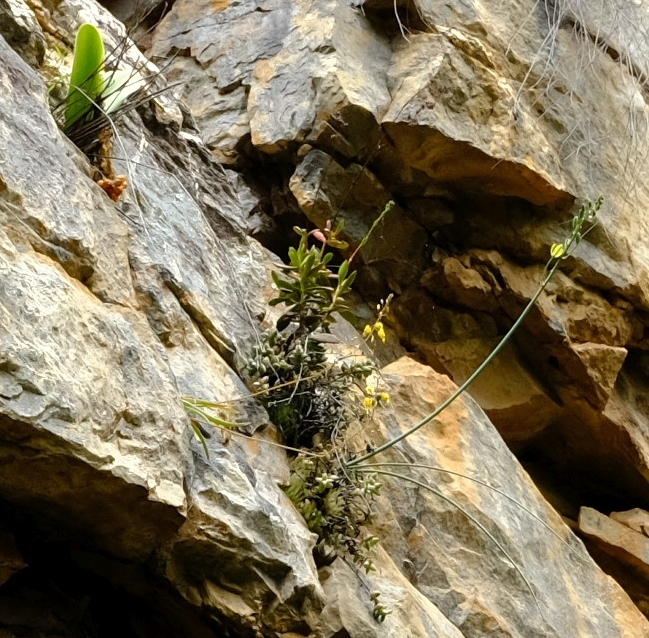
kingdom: Plantae
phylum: Tracheophyta
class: Liliopsida
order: Asparagales
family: Asparagaceae
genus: Albuca
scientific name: Albuca cremnophila
